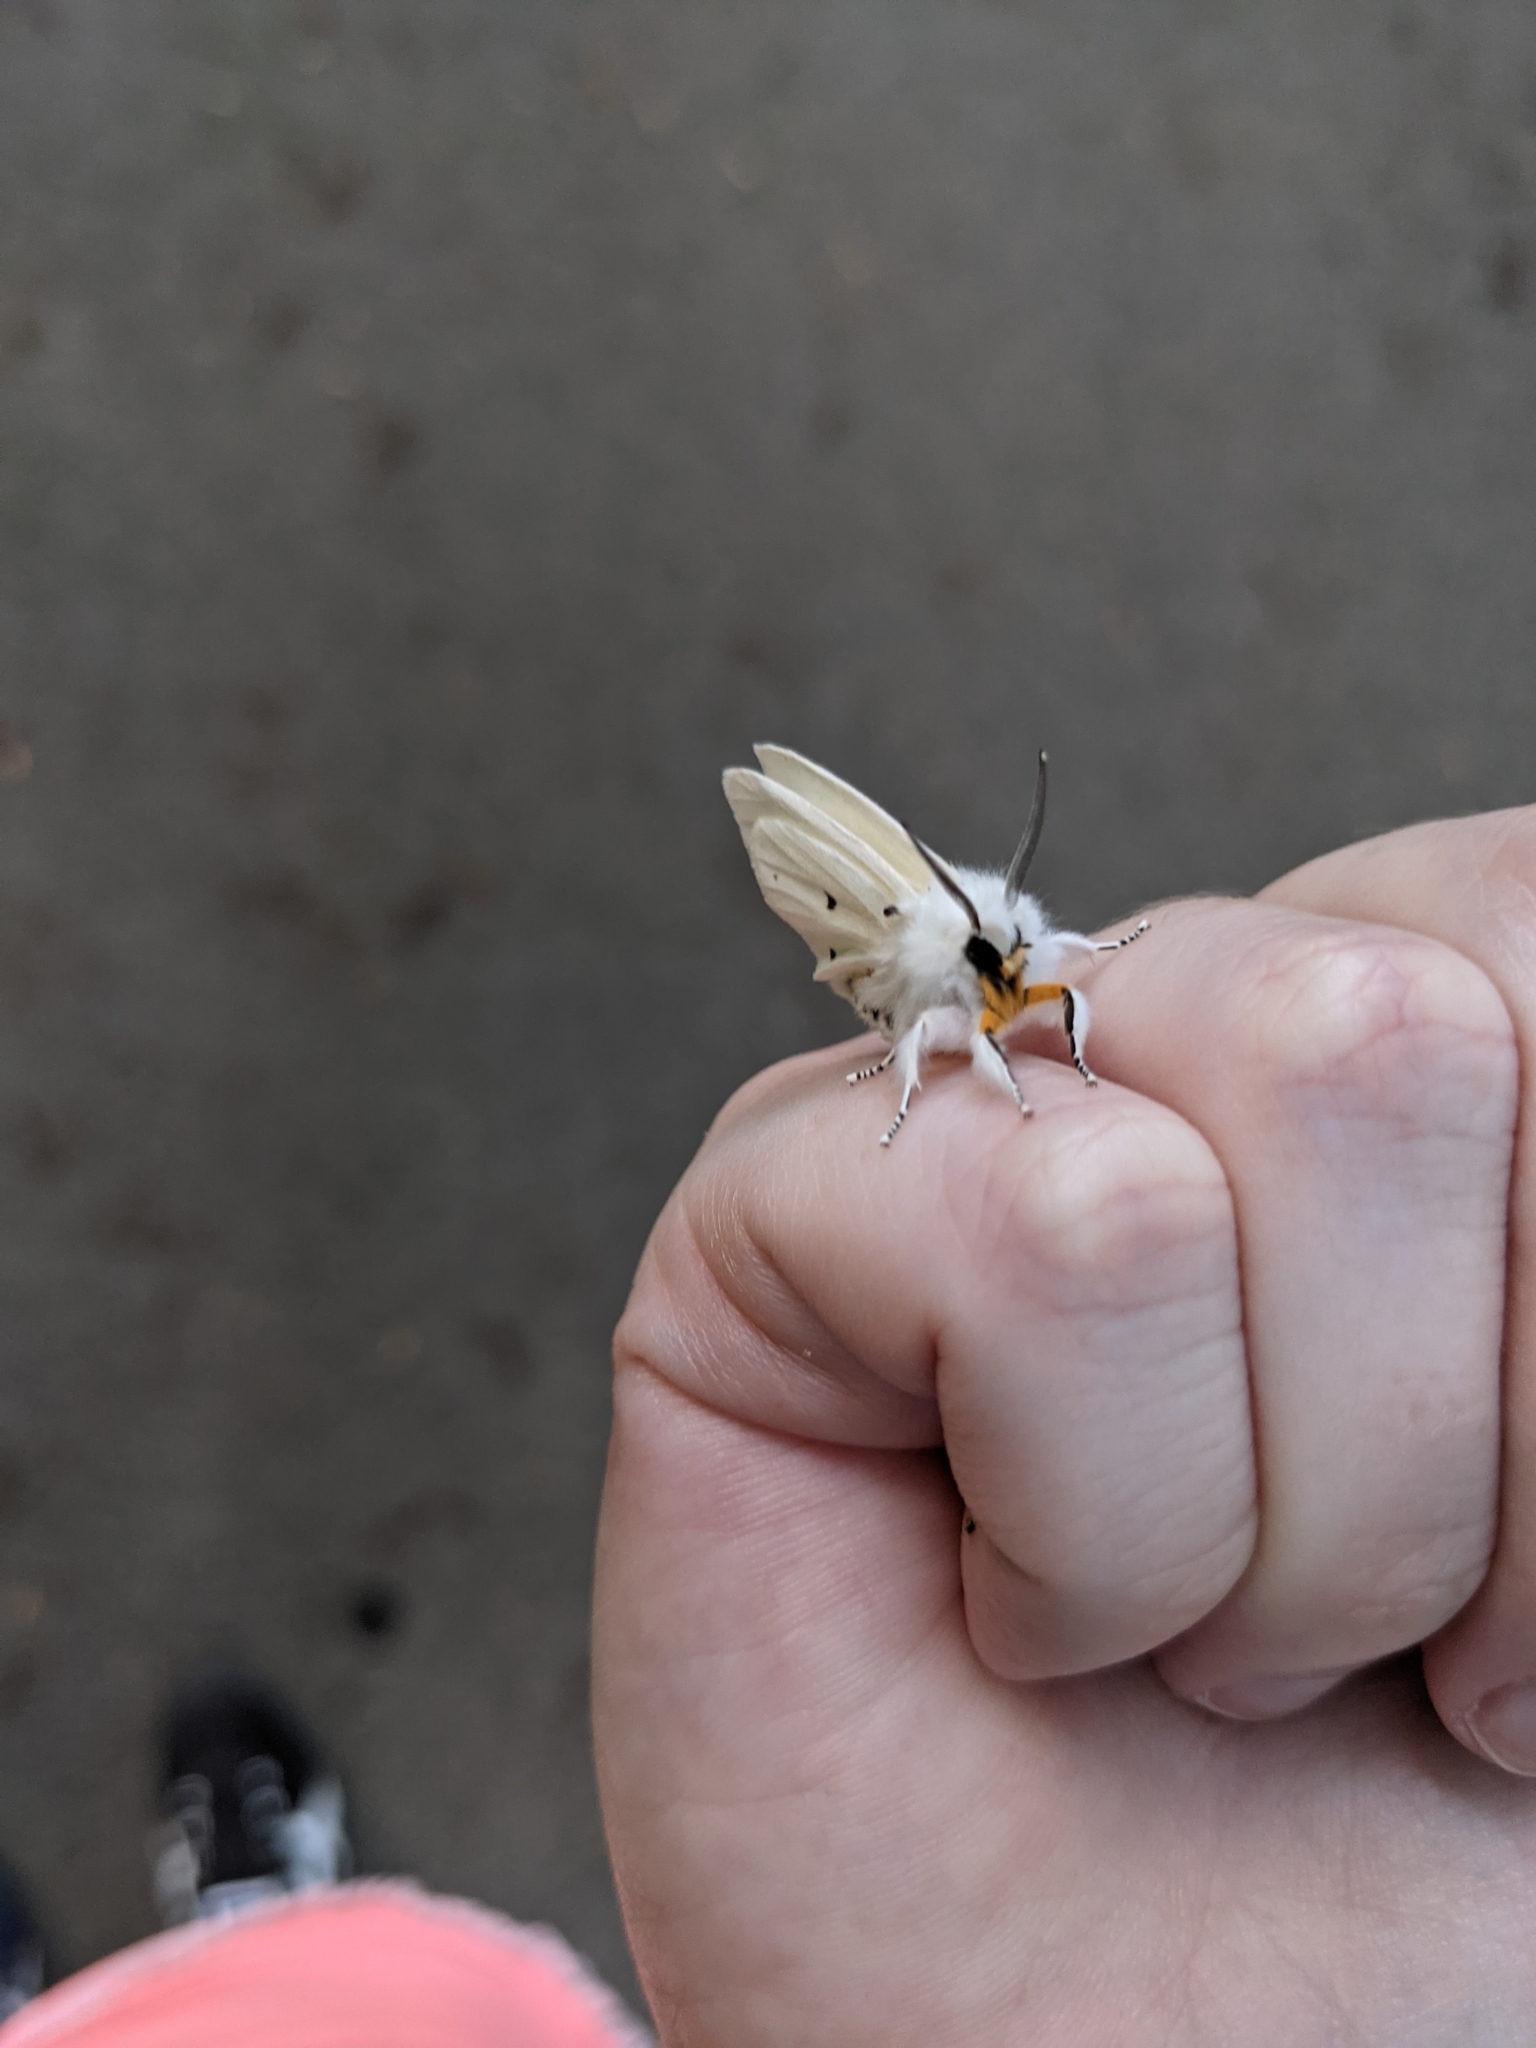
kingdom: Animalia
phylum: Arthropoda
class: Insecta
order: Lepidoptera
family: Erebidae
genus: Spilosoma
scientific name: Spilosoma virginica
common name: Virginia tiger moth
